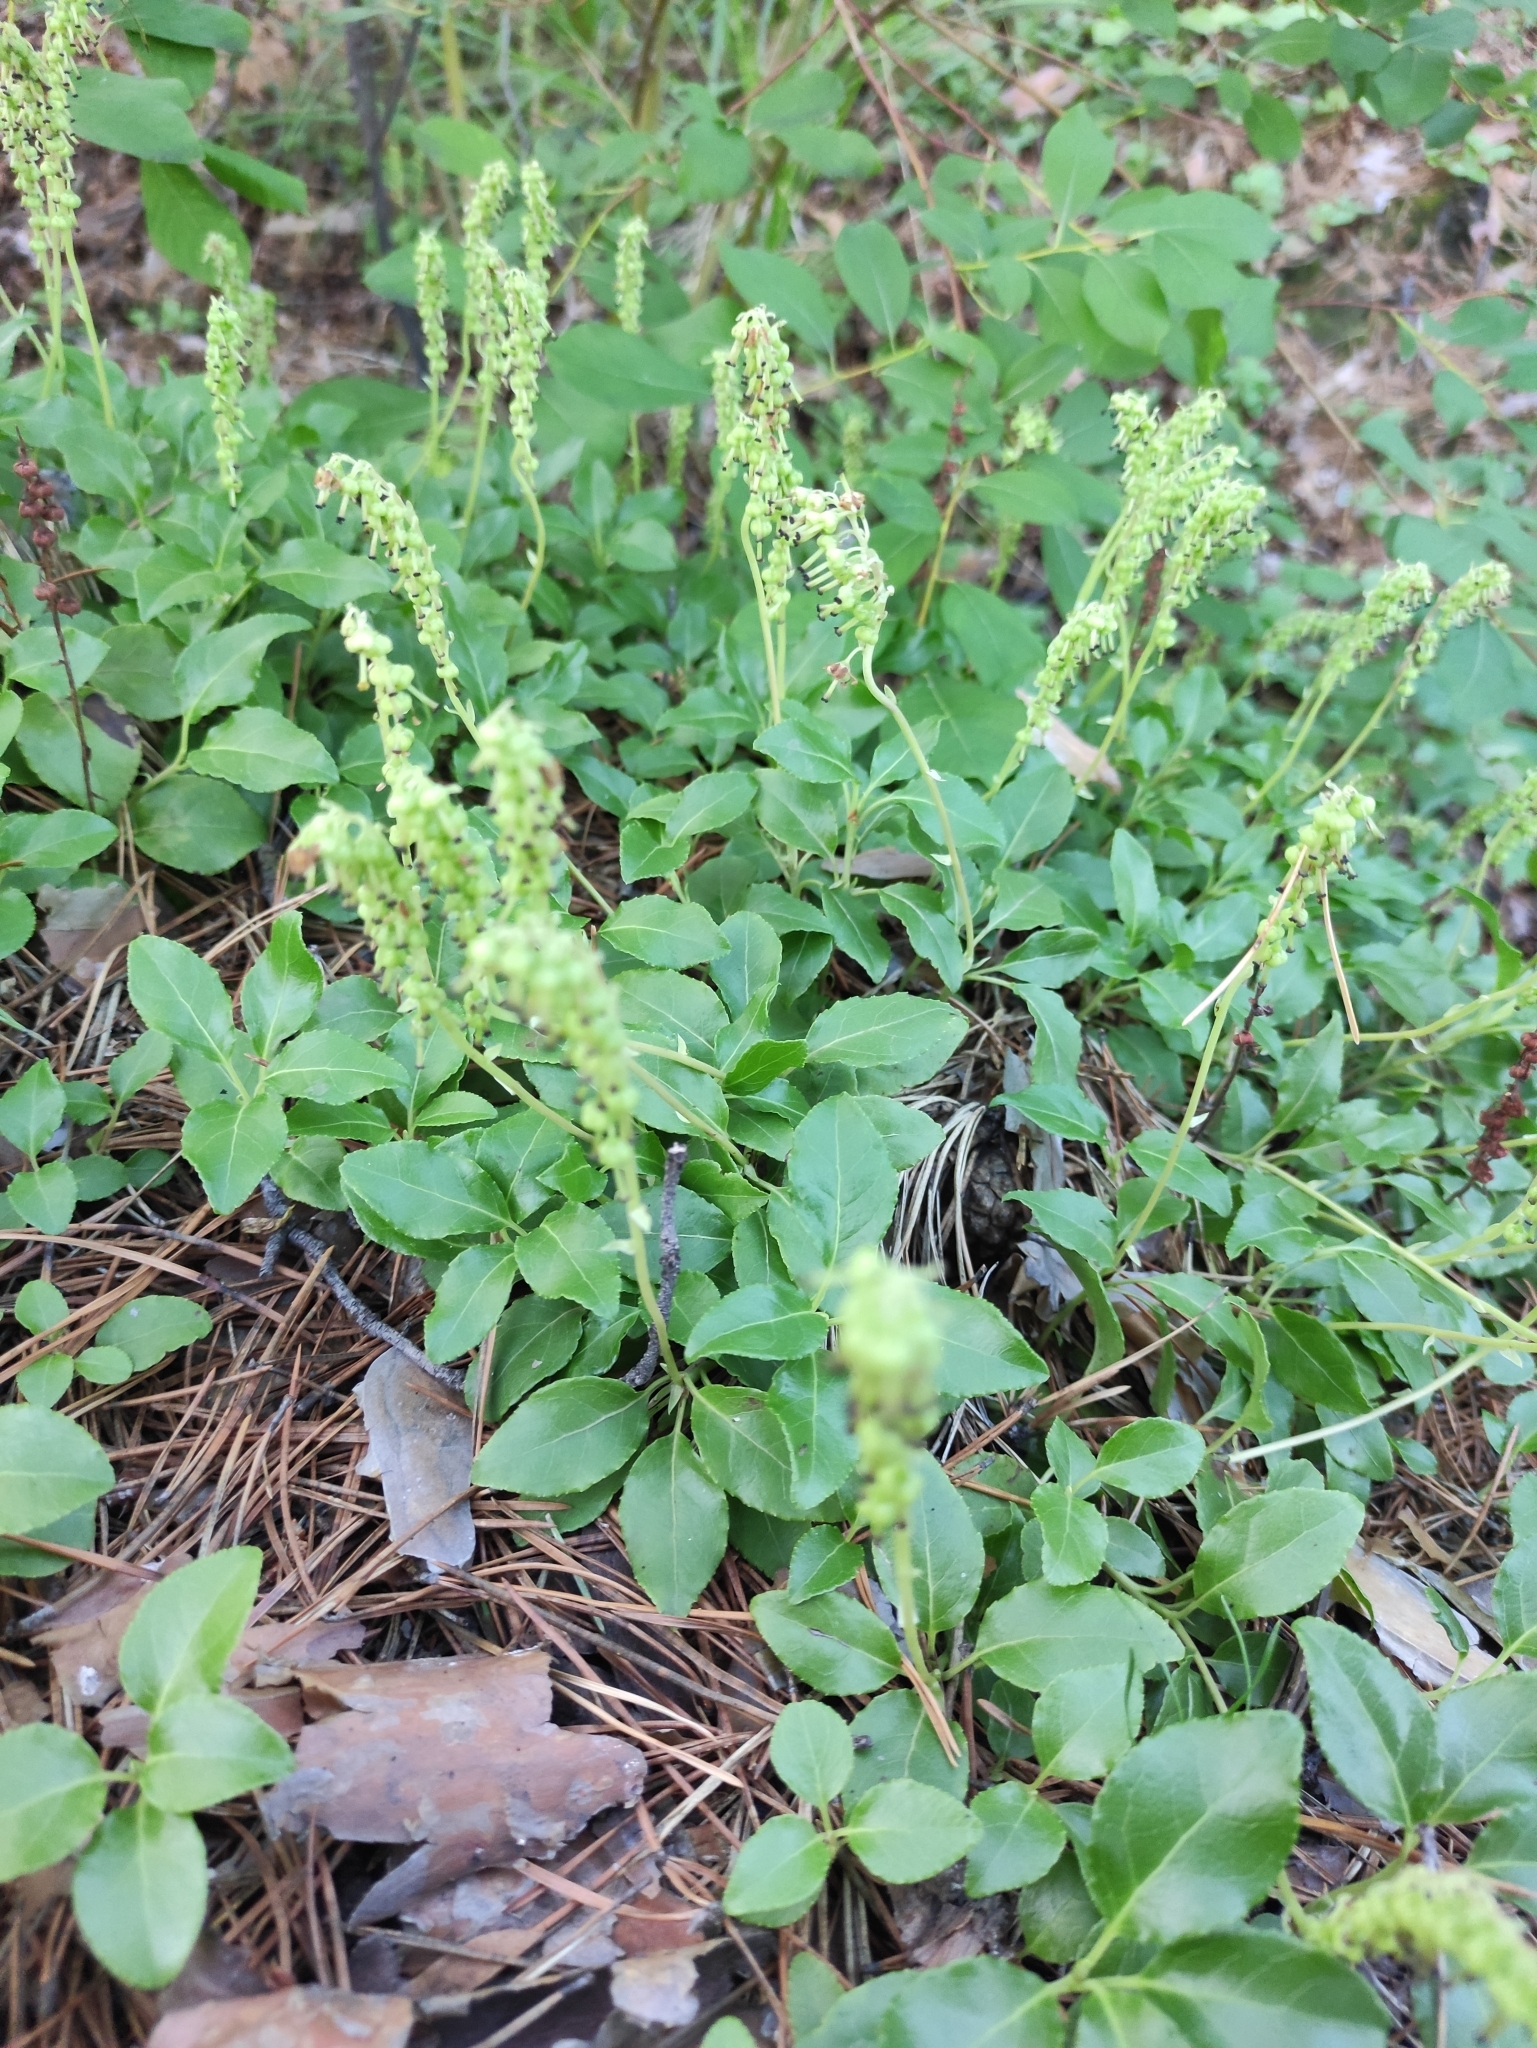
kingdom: Plantae
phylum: Tracheophyta
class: Magnoliopsida
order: Ericales
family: Ericaceae
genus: Orthilia
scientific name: Orthilia secunda
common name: One-sided orthilia
